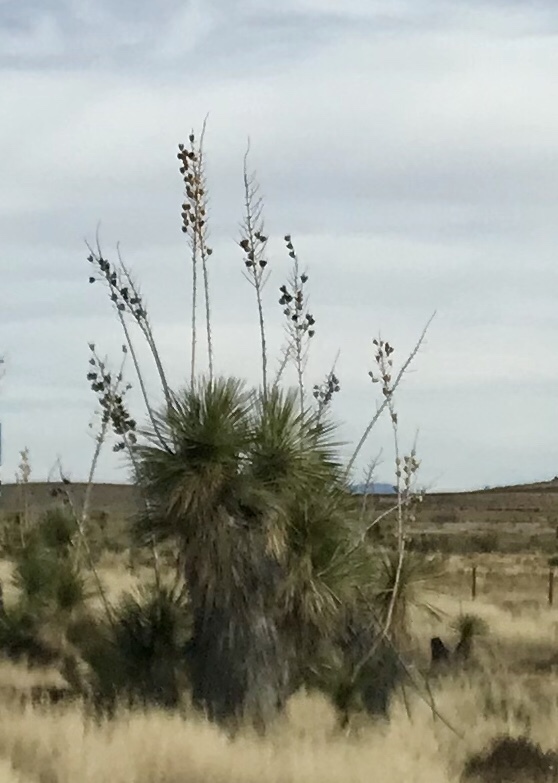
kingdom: Plantae
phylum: Tracheophyta
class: Liliopsida
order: Asparagales
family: Asparagaceae
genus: Yucca
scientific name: Yucca elata
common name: Palmella
